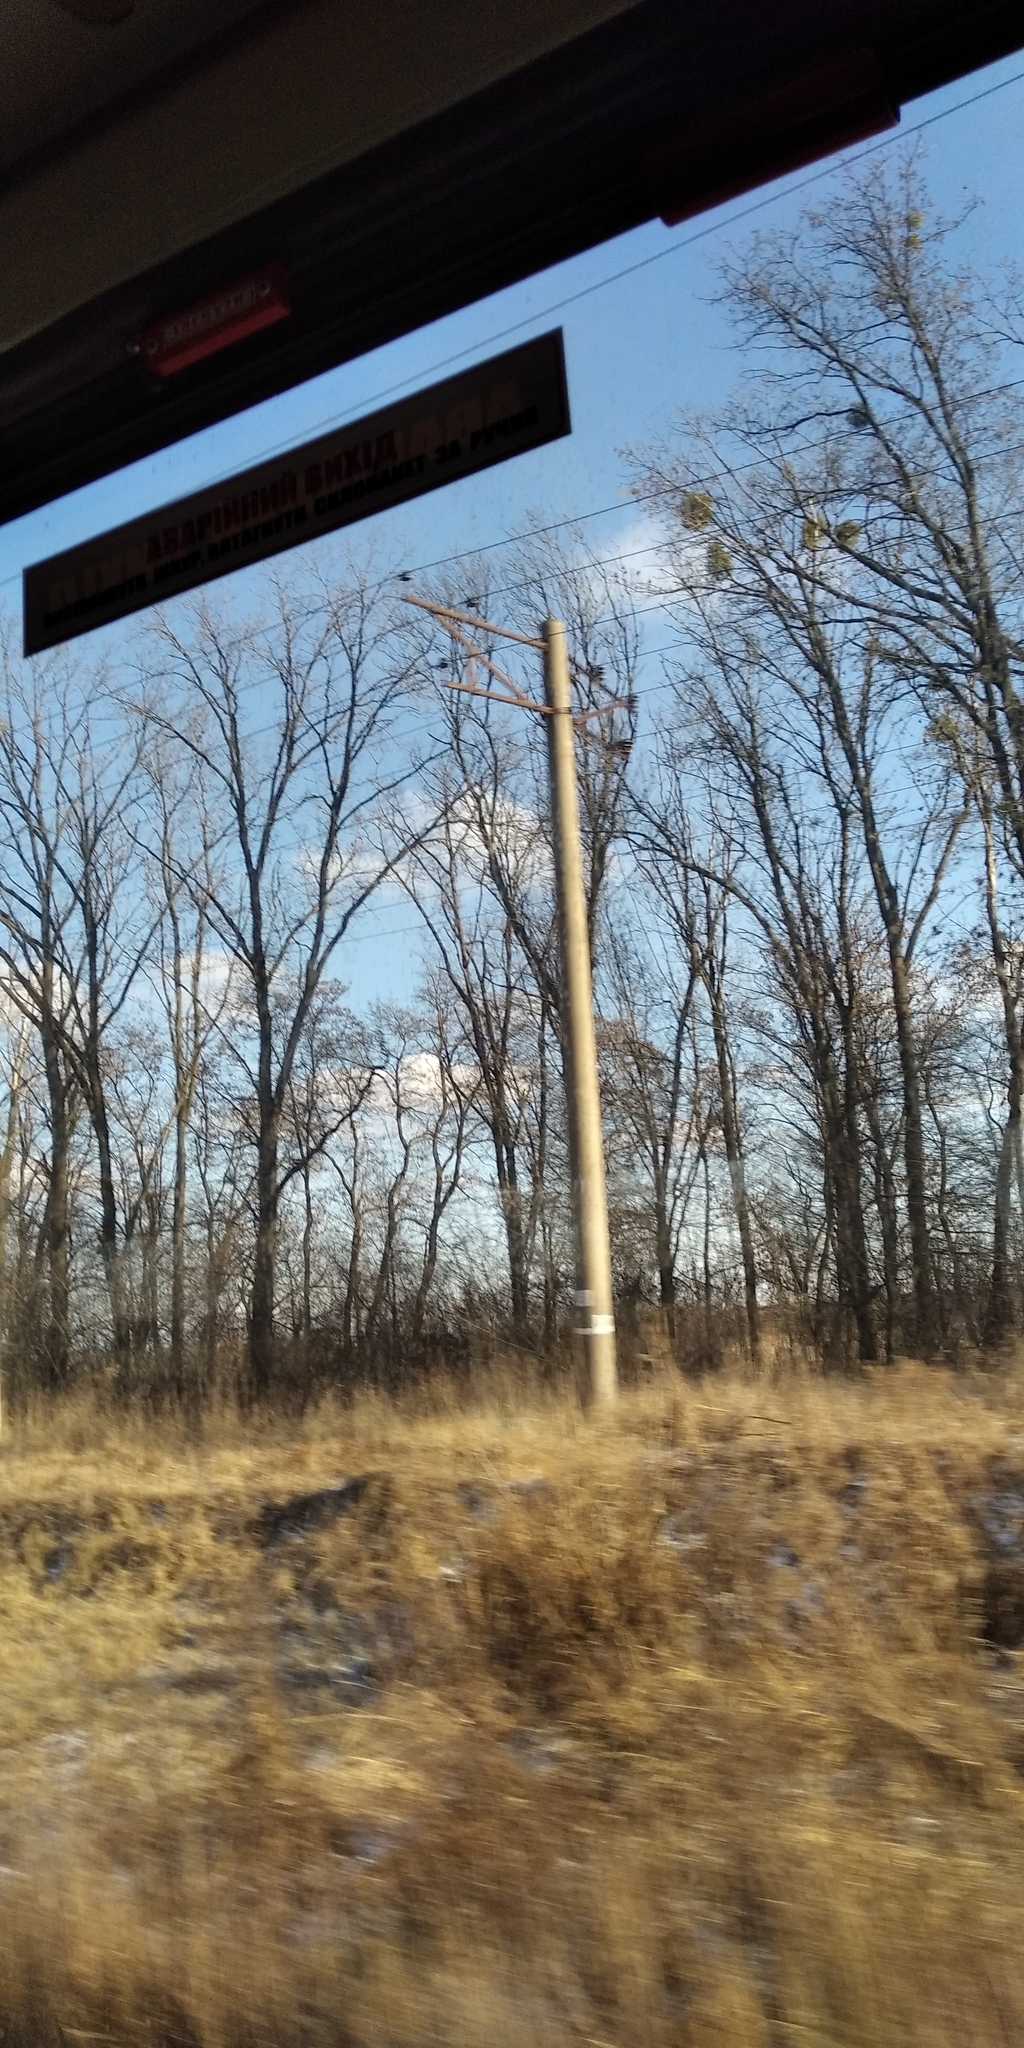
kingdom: Plantae
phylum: Tracheophyta
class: Magnoliopsida
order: Santalales
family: Viscaceae
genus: Viscum
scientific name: Viscum album
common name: Mistletoe
